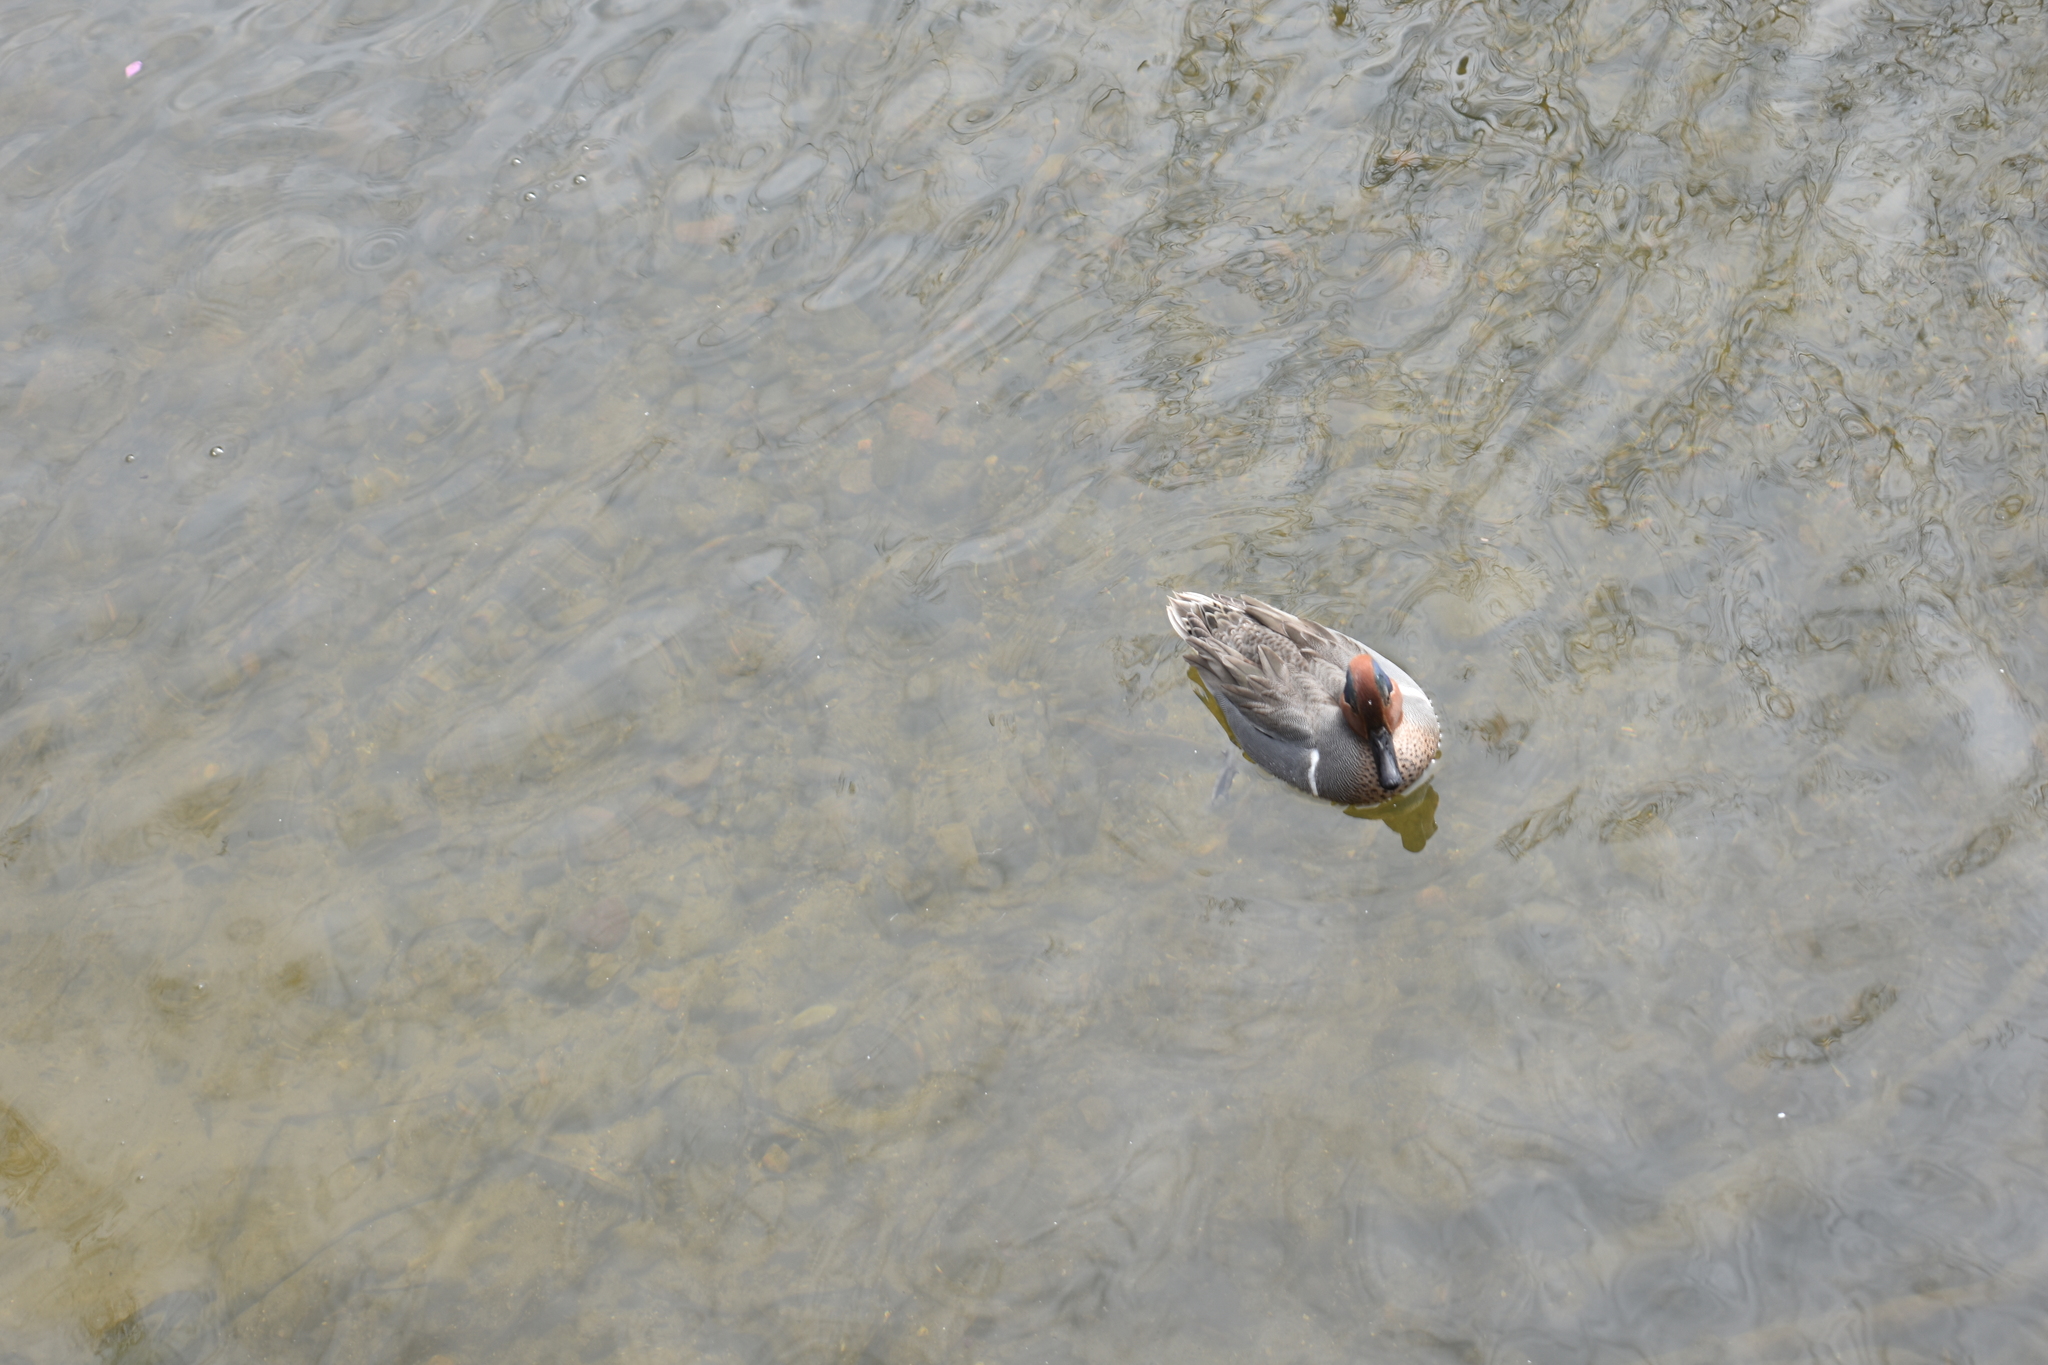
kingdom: Animalia
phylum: Chordata
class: Aves
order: Anseriformes
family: Anatidae
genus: Anas
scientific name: Anas crecca
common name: Eurasian teal
